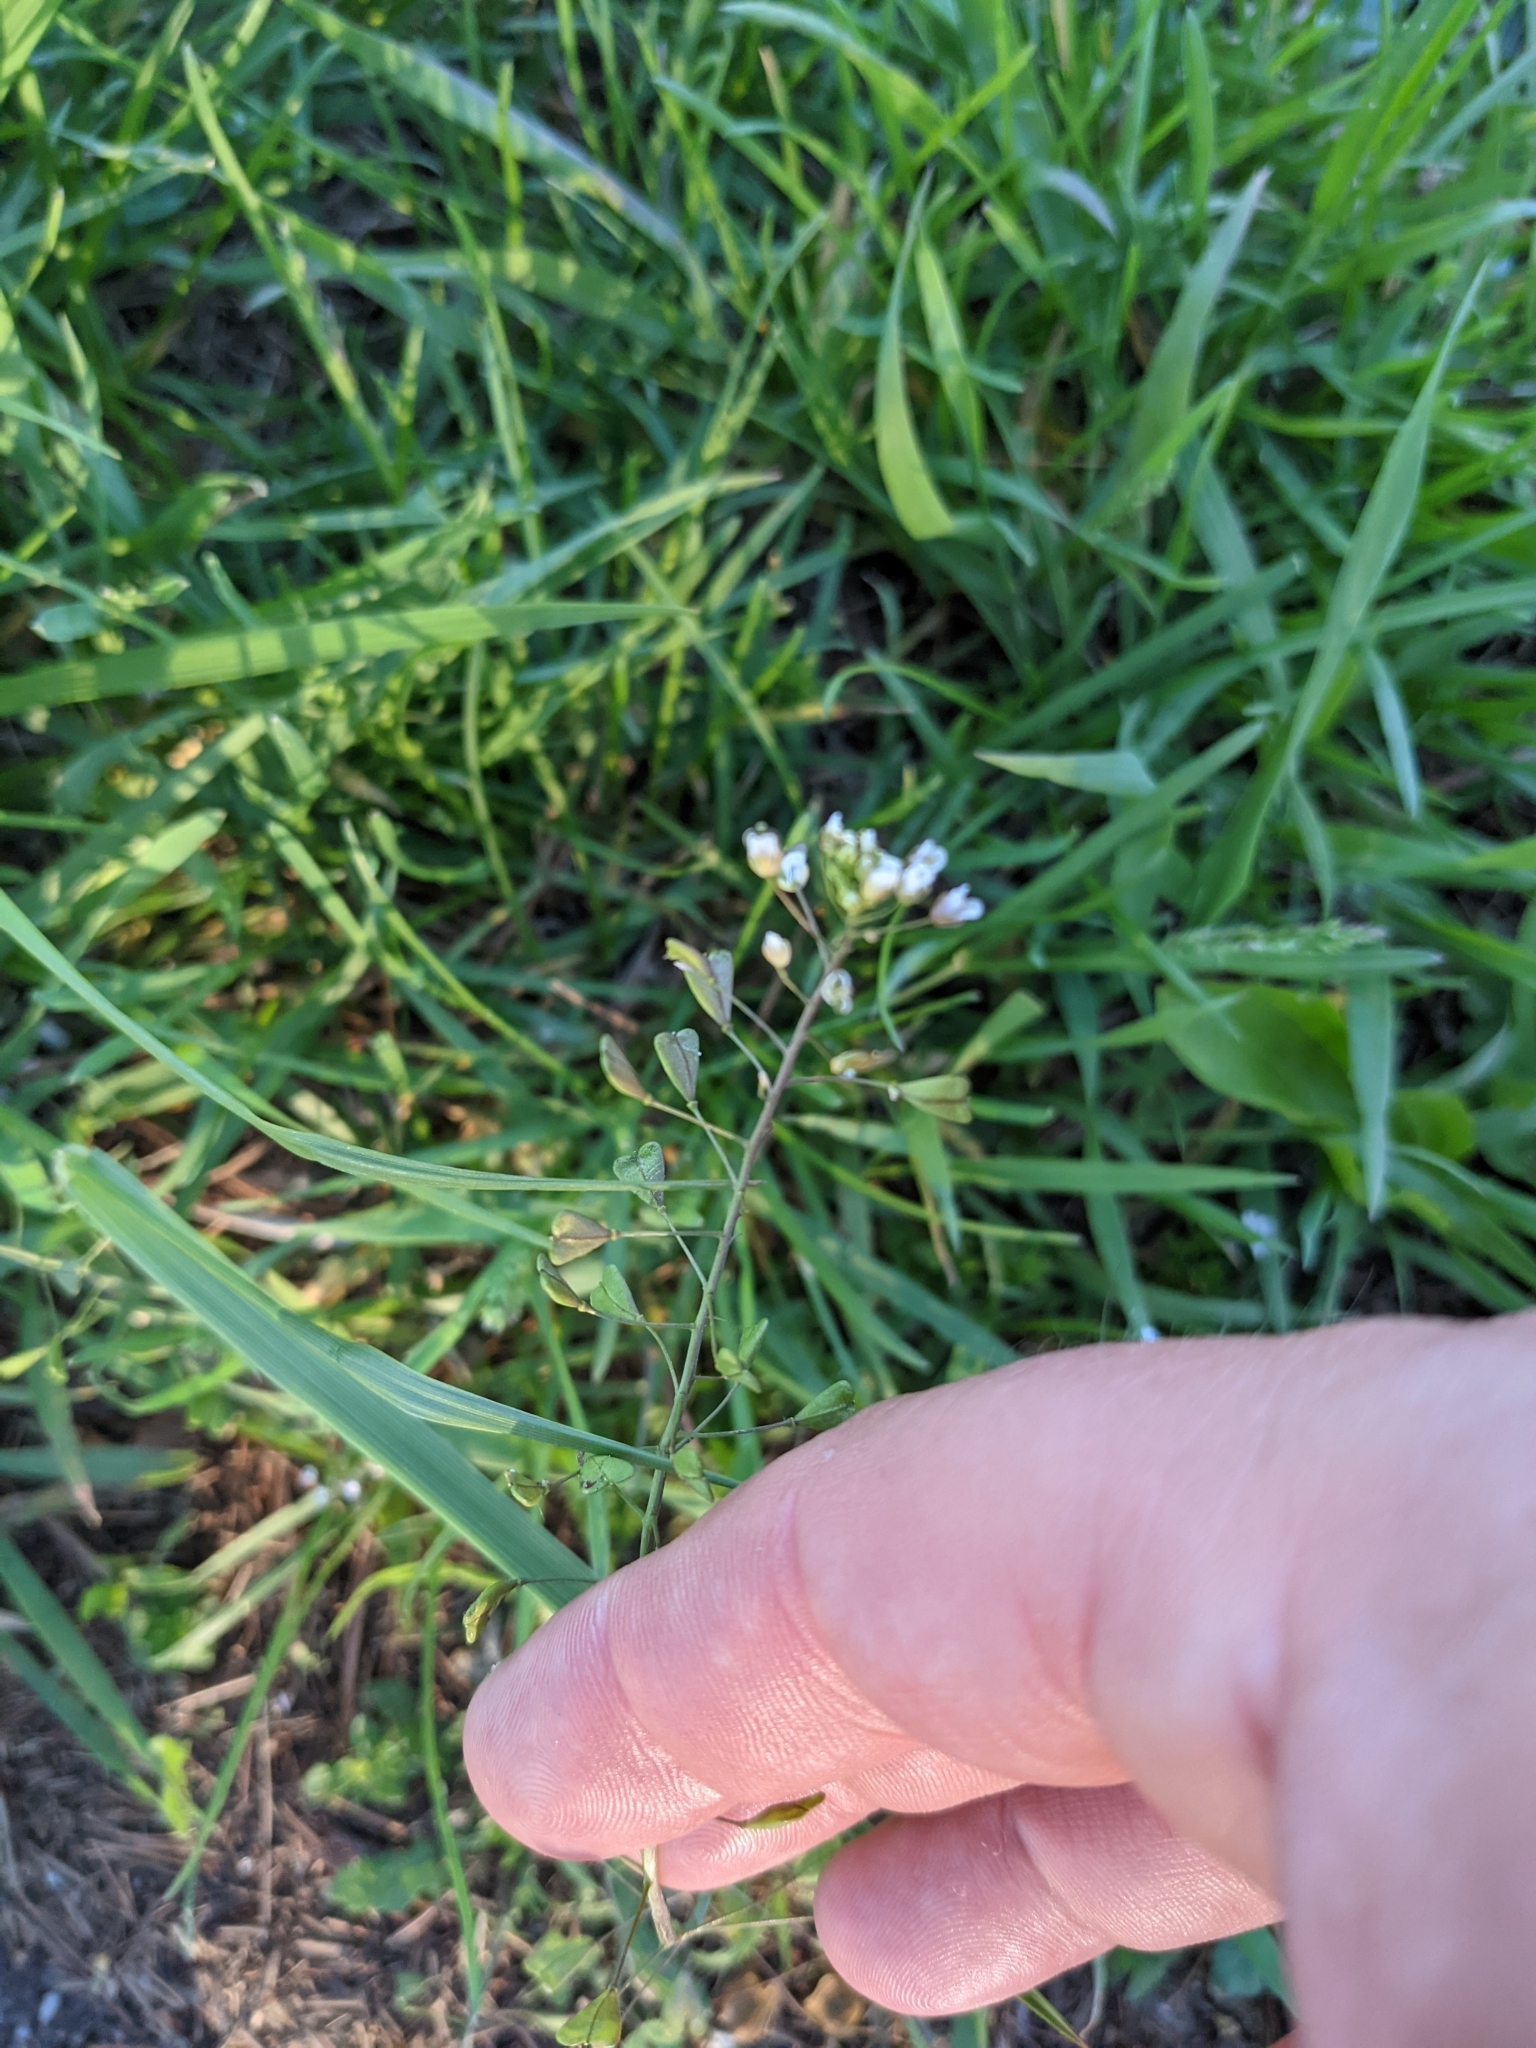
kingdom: Plantae
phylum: Tracheophyta
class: Magnoliopsida
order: Brassicales
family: Brassicaceae
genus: Capsella
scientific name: Capsella bursa-pastoris
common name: Shepherd's purse
